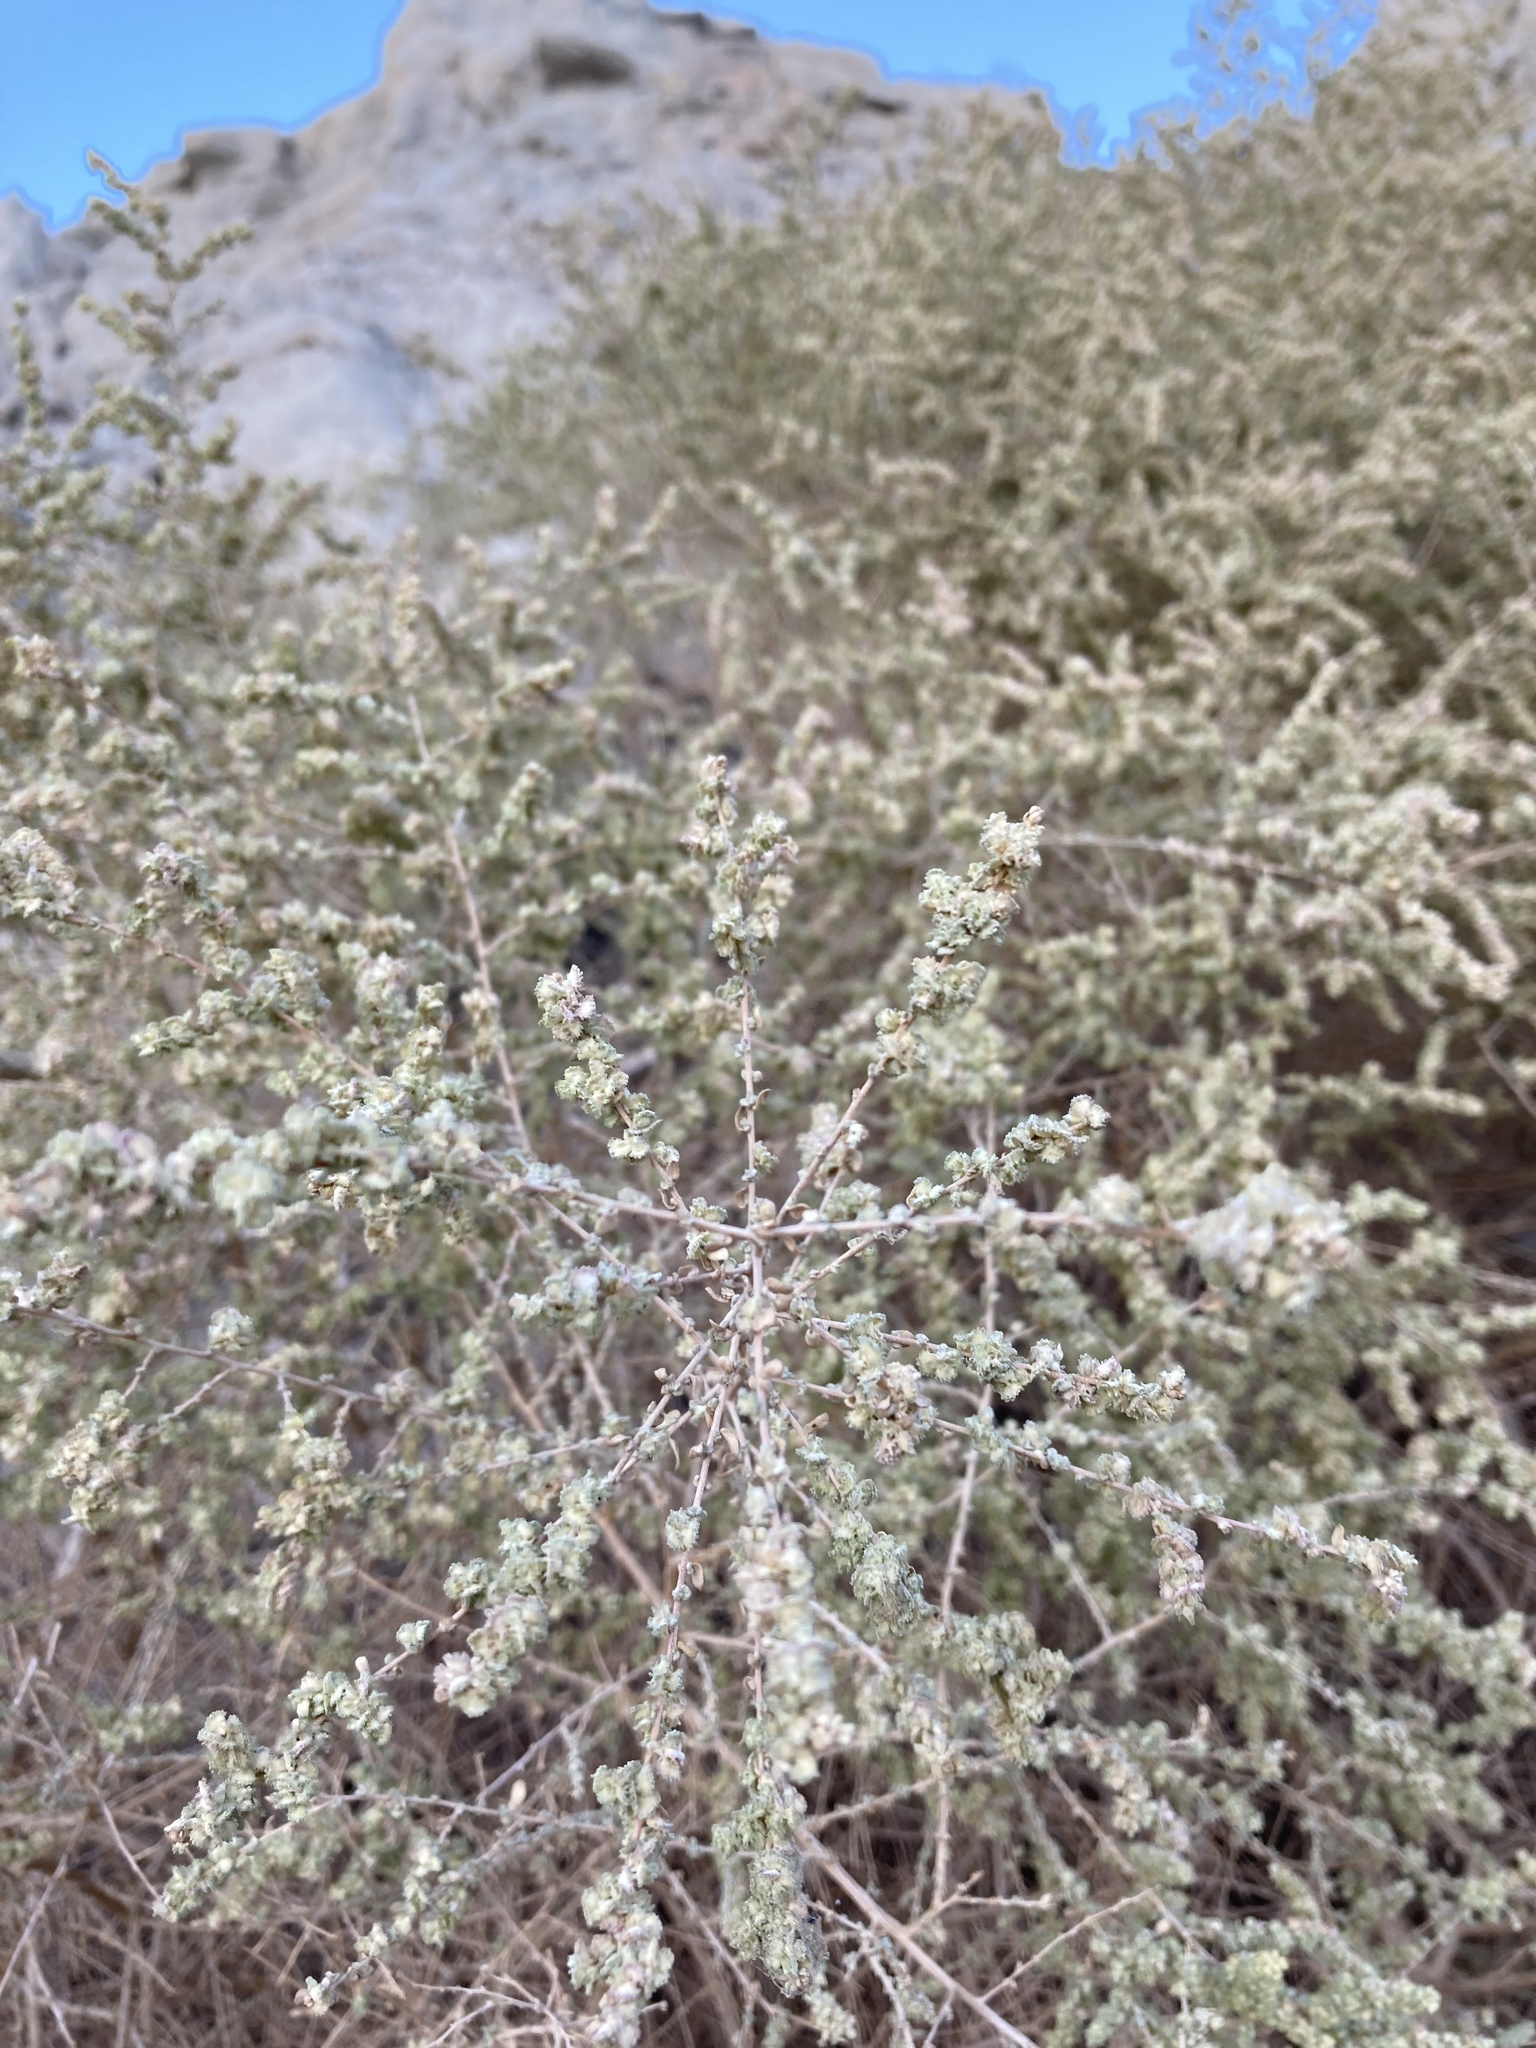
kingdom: Plantae
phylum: Tracheophyta
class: Magnoliopsida
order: Caryophyllales
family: Amaranthaceae
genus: Atriplex
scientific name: Atriplex polycarpa
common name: Desert saltbush
